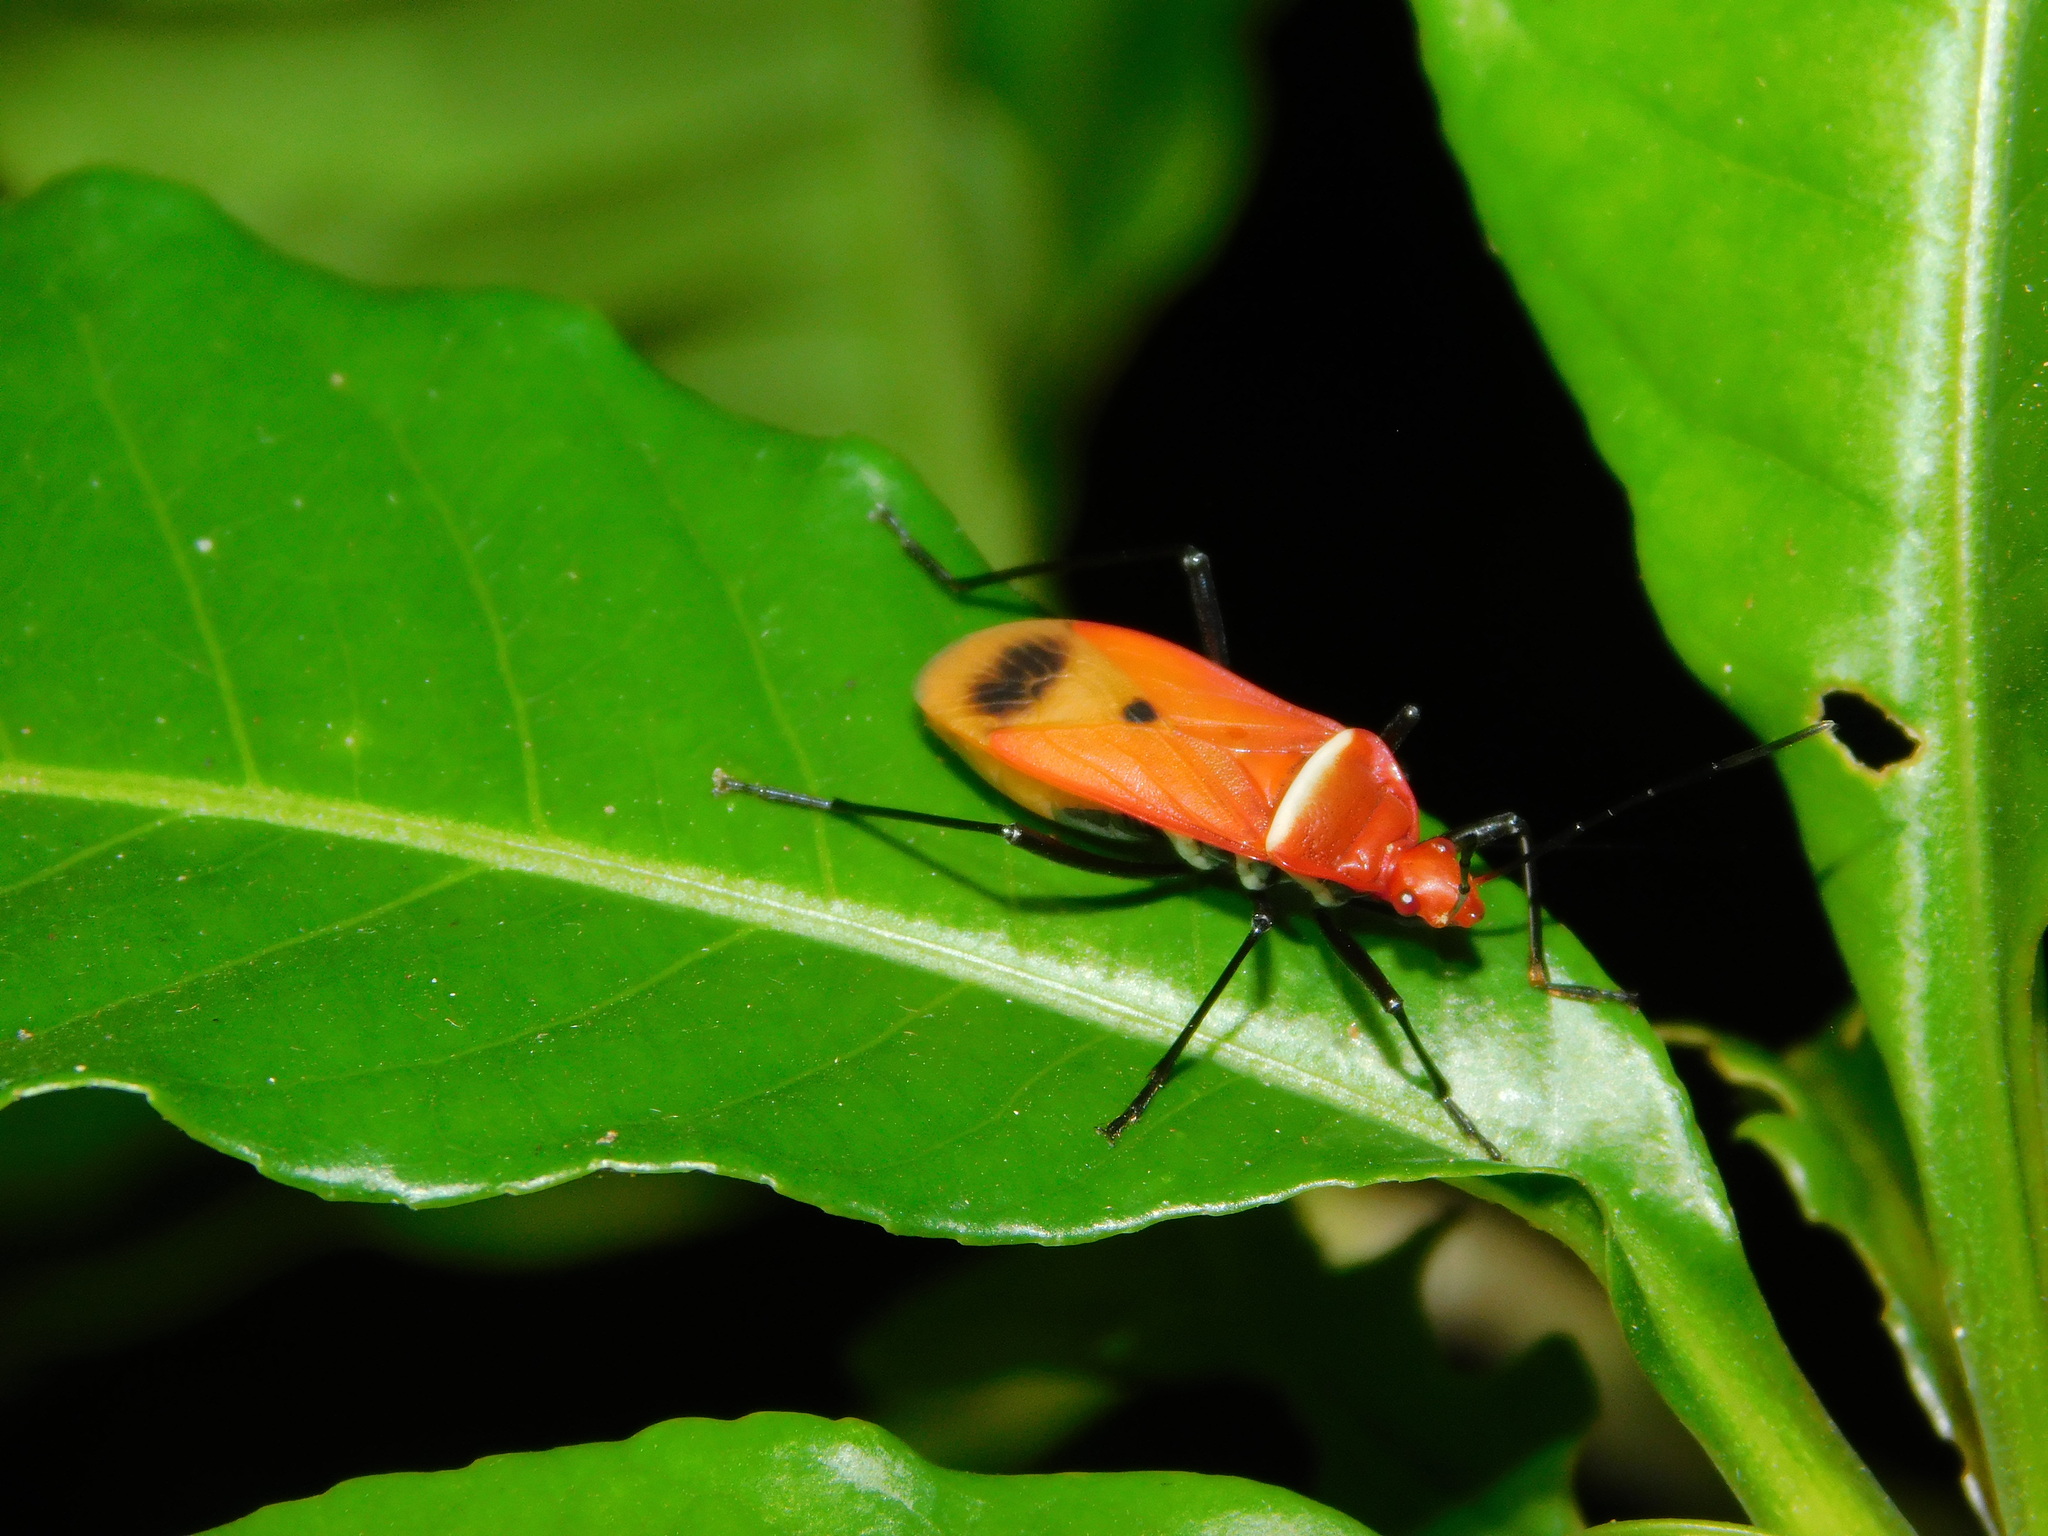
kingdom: Animalia
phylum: Arthropoda
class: Insecta
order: Hemiptera
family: Pyrrhocoridae
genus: Dindymus
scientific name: Dindymus rubiginosus
